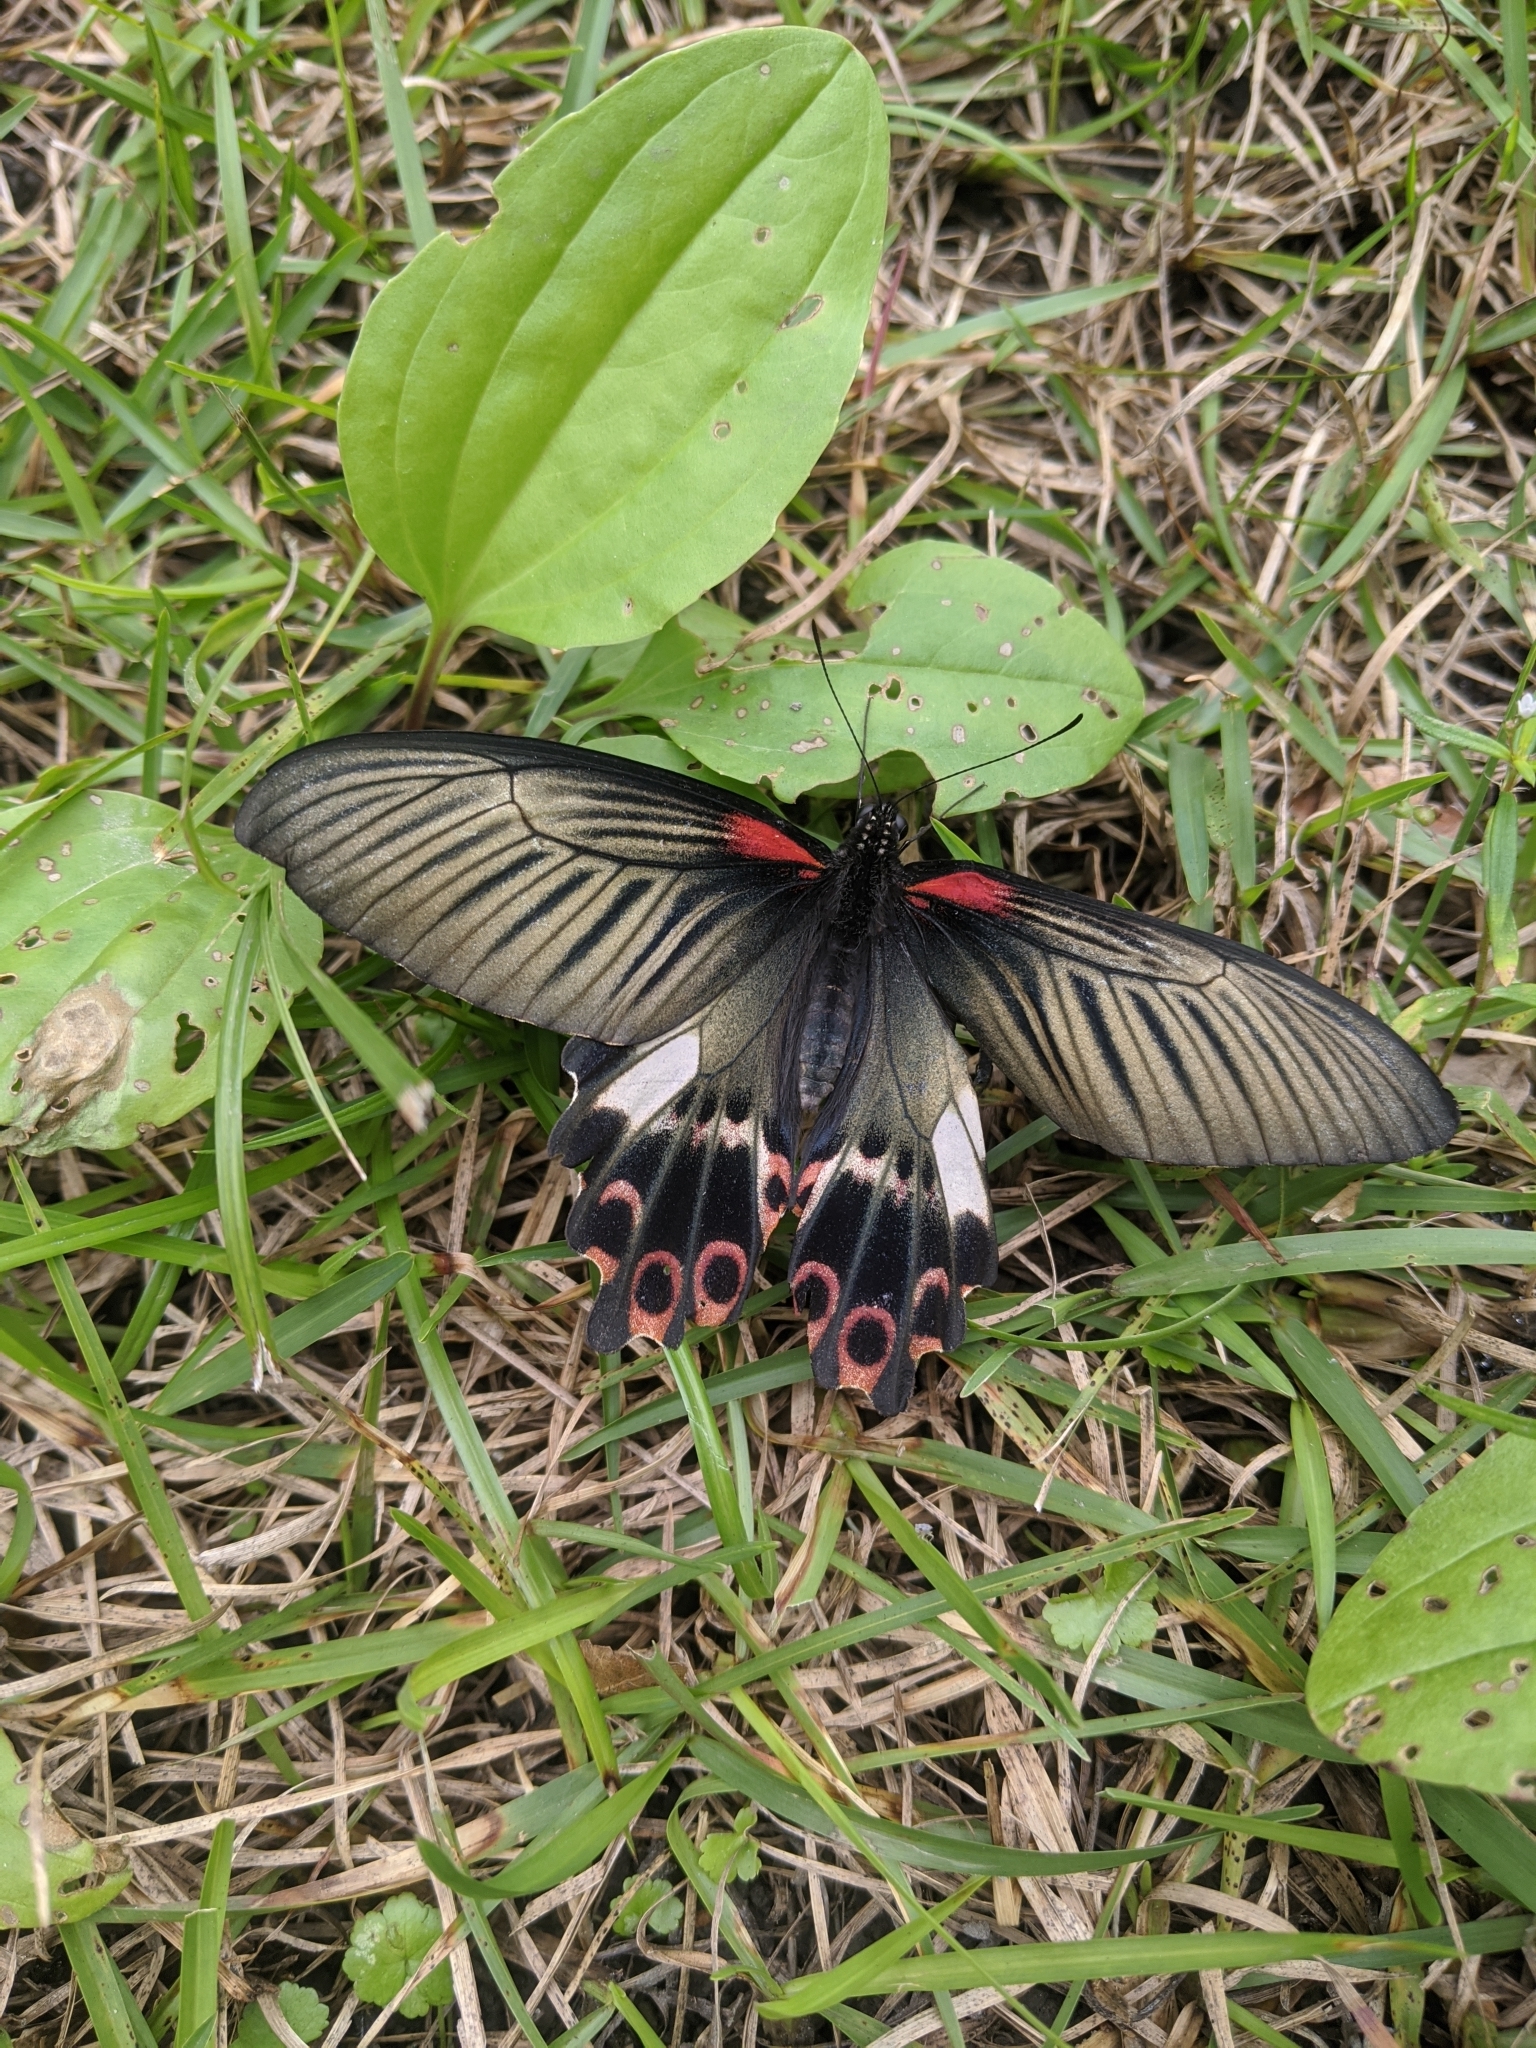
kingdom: Animalia
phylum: Arthropoda
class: Insecta
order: Lepidoptera
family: Papilionidae
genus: Papilio
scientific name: Papilio thaiwanus
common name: Formosan swallowtail
